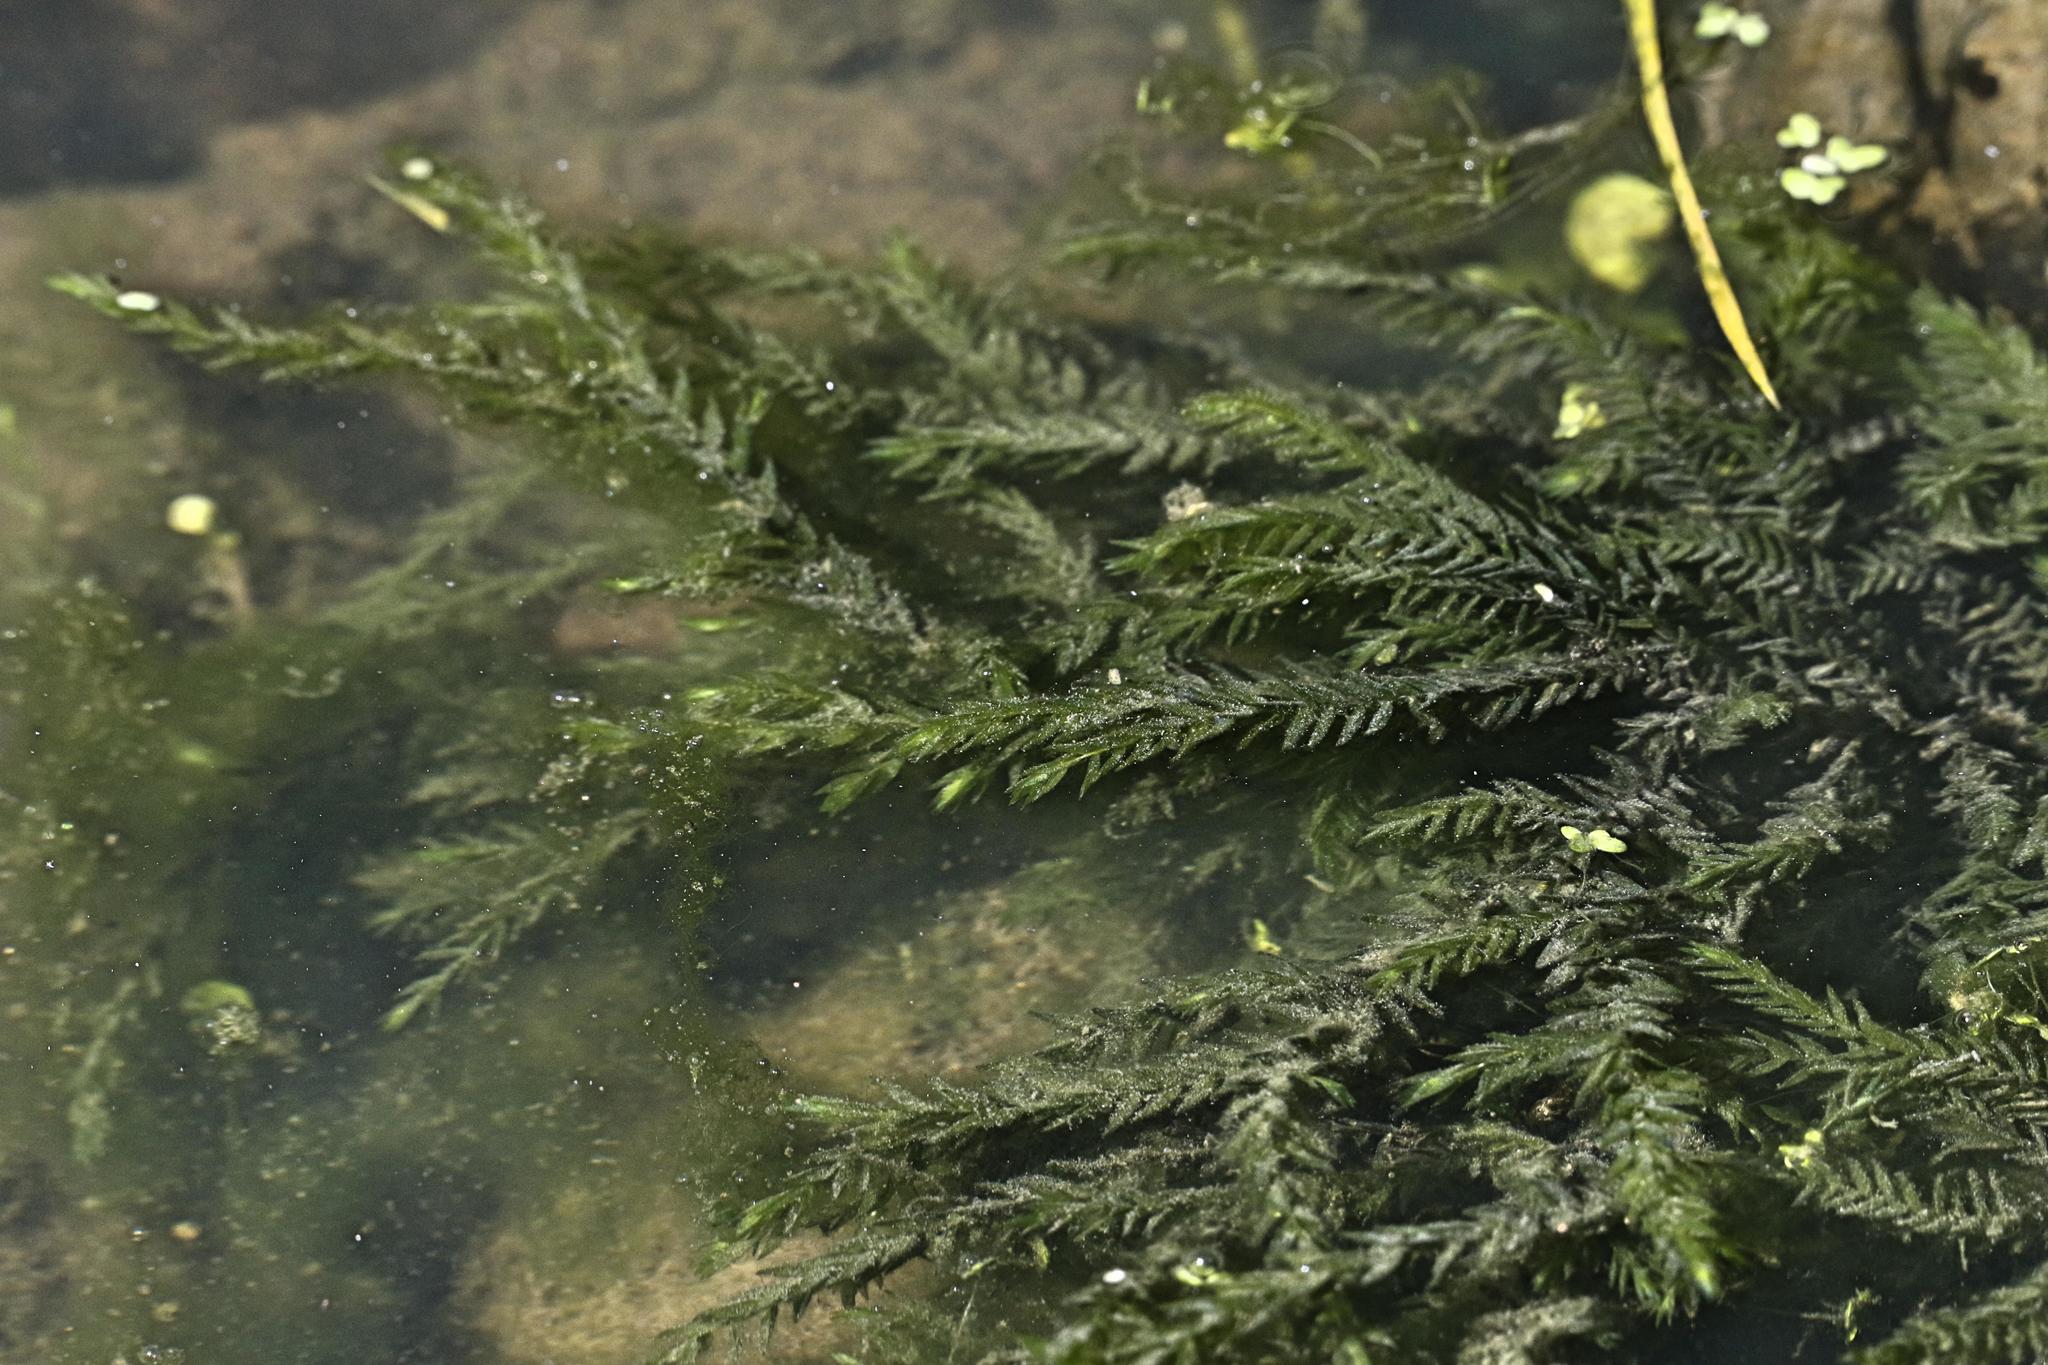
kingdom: Plantae
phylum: Bryophyta
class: Bryopsida
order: Hypnales
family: Fontinalaceae
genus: Fontinalis
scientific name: Fontinalis antipyretica
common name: Greater water-moss
